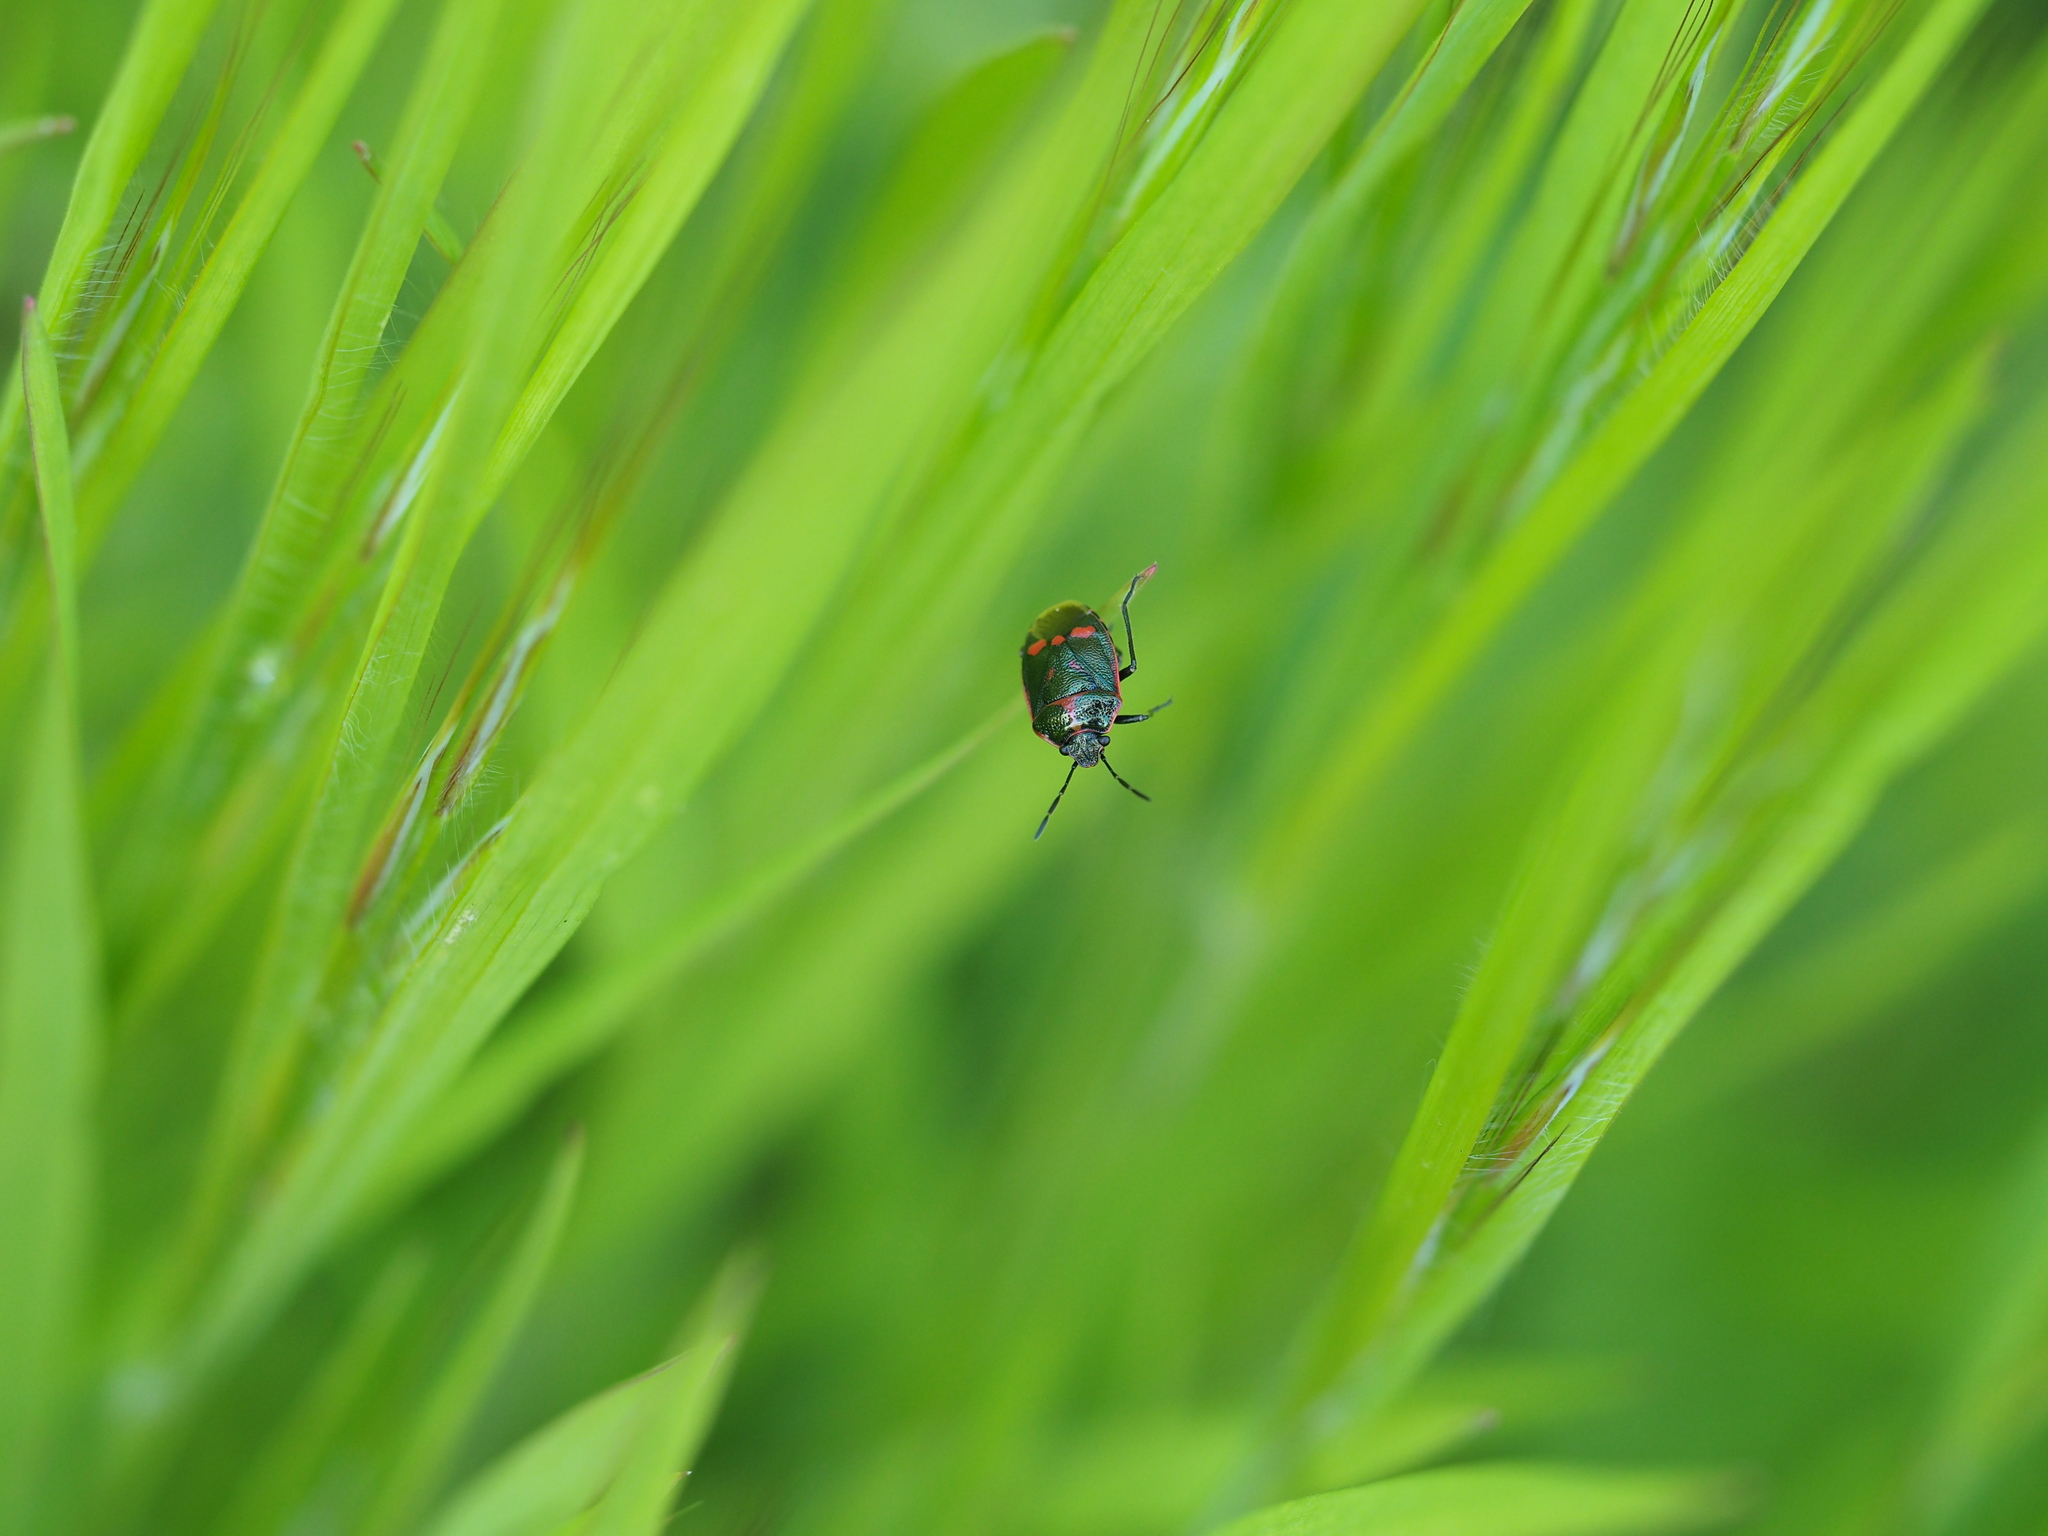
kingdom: Animalia
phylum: Arthropoda
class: Insecta
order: Hemiptera
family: Pentatomidae
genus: Eurydema
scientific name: Eurydema oleracea
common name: Cabbage bug
